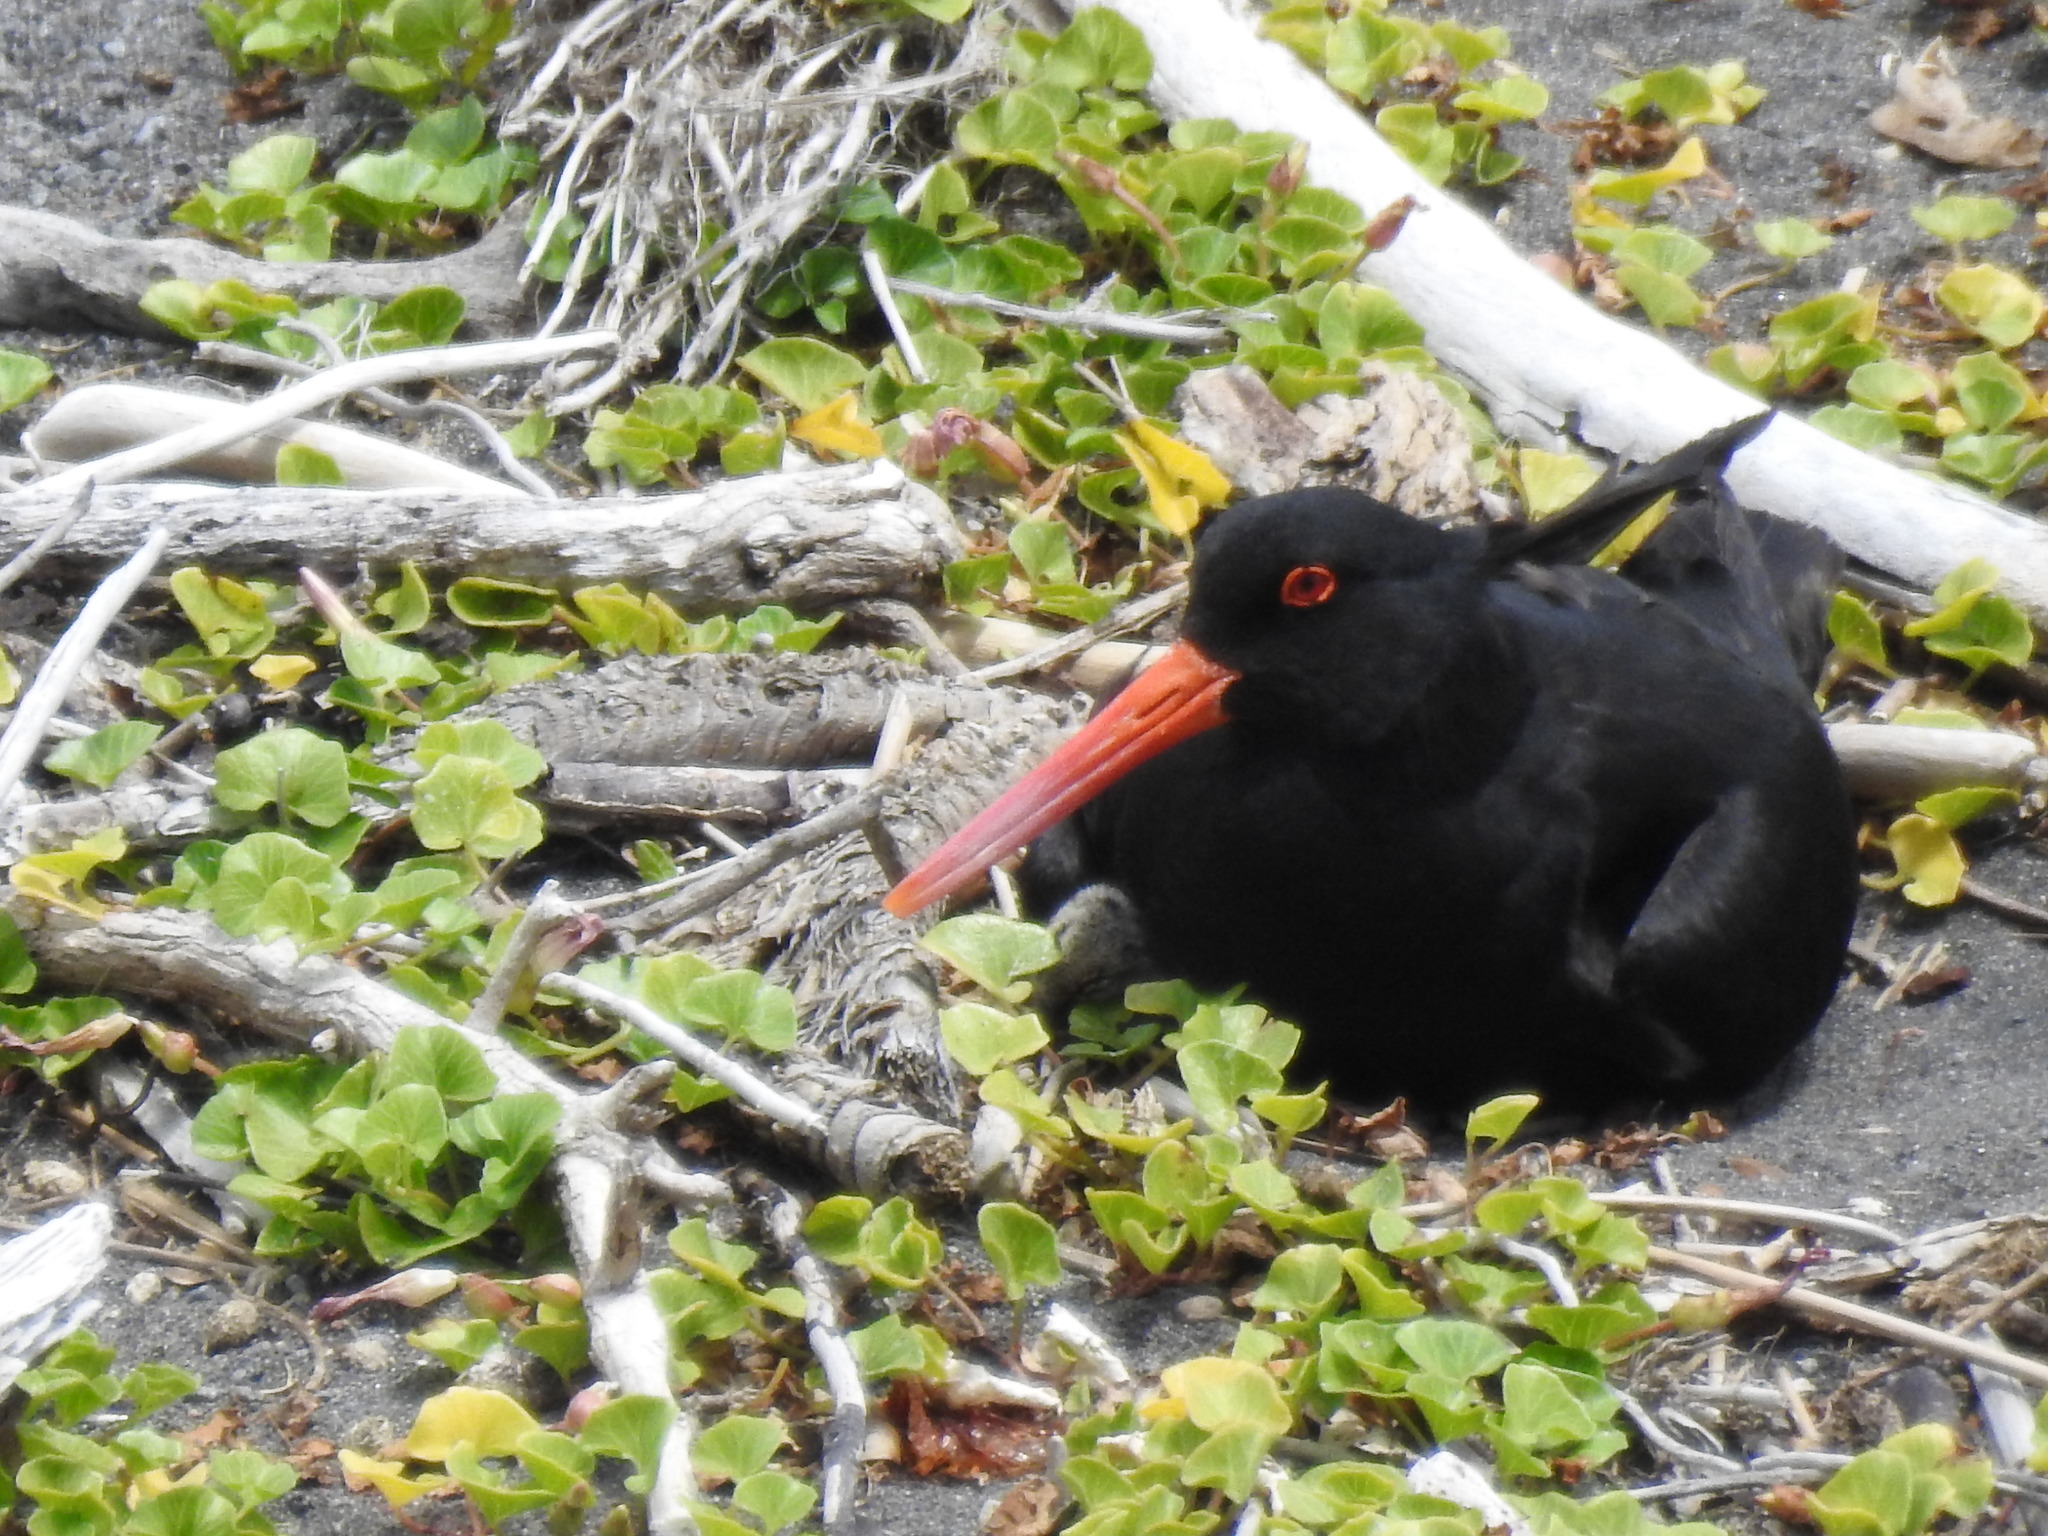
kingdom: Animalia
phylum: Chordata
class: Aves
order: Charadriiformes
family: Haematopodidae
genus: Haematopus
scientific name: Haematopus unicolor
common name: Variable oystercatcher
